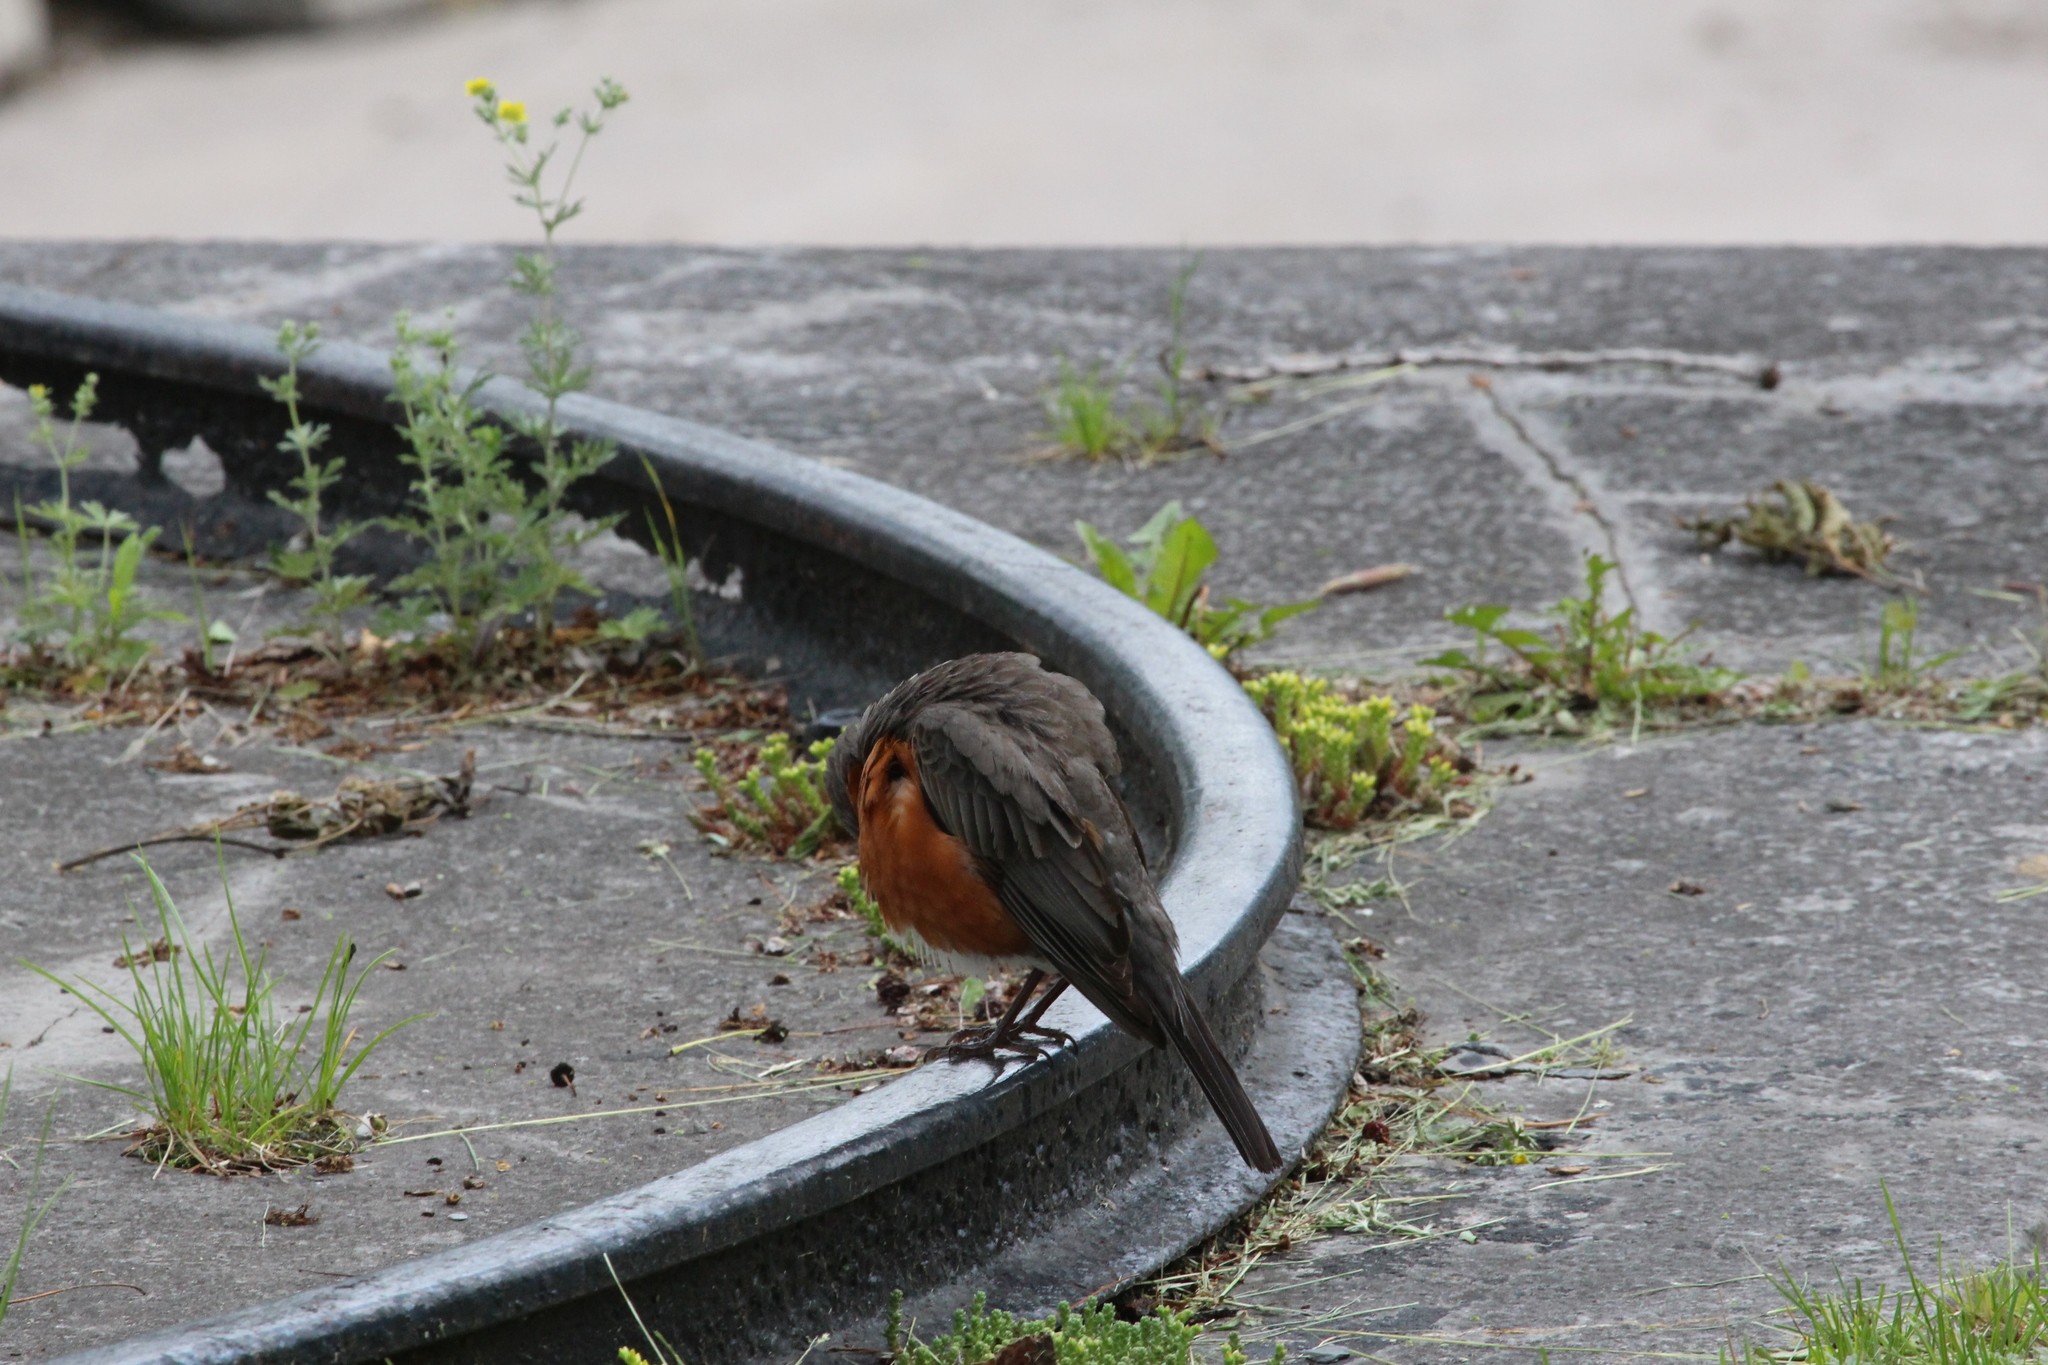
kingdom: Animalia
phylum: Chordata
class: Aves
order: Passeriformes
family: Turdidae
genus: Turdus
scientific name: Turdus migratorius
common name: American robin
